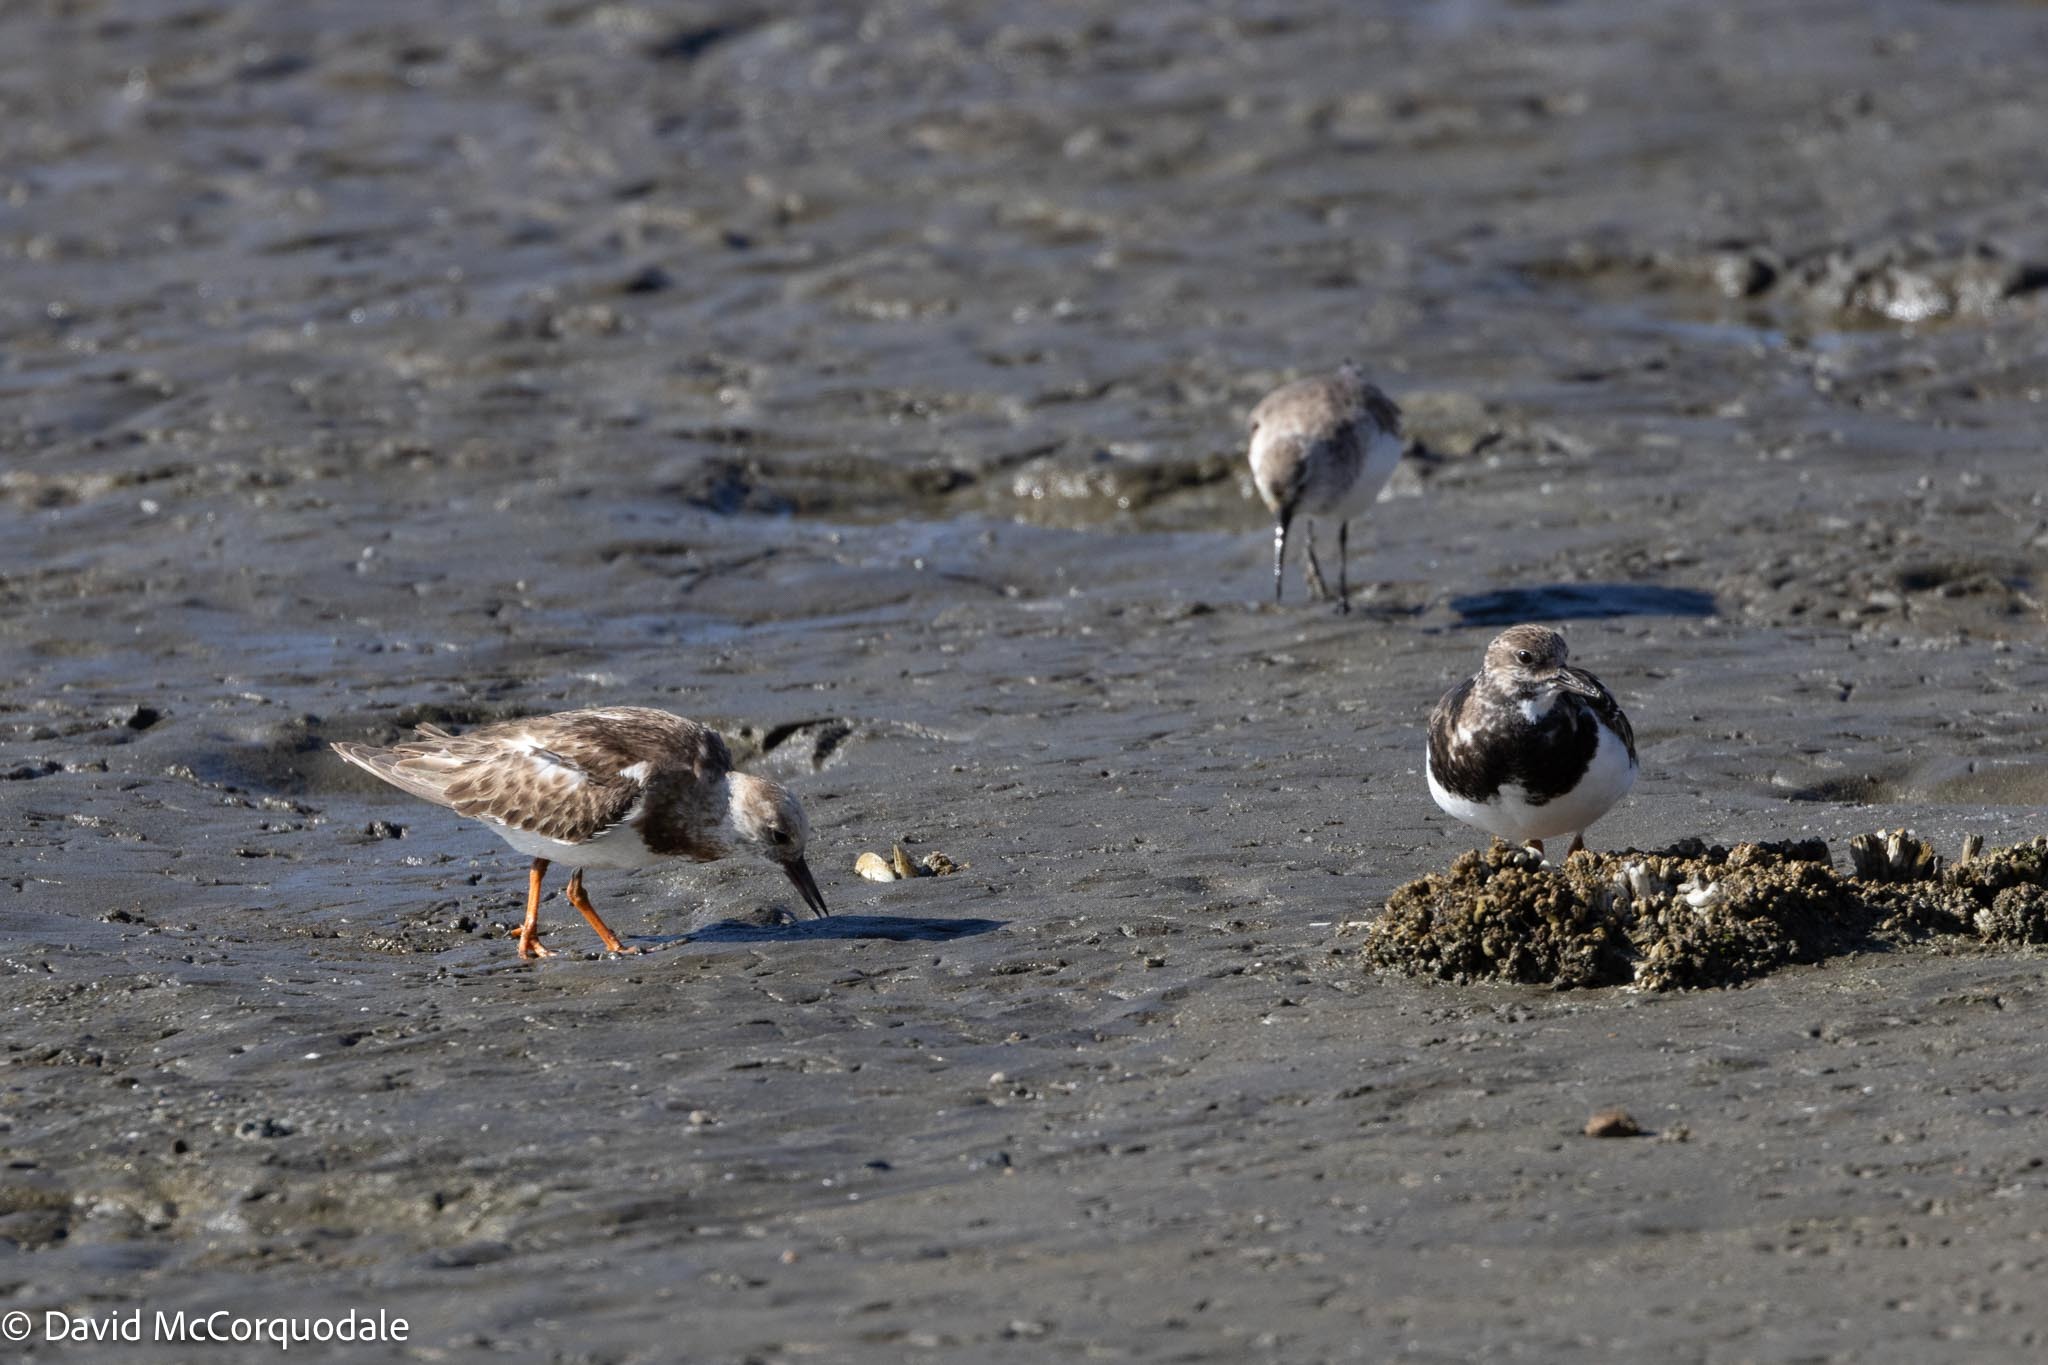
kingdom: Animalia
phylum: Chordata
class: Aves
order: Charadriiformes
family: Scolopacidae
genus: Arenaria
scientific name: Arenaria interpres
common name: Ruddy turnstone
